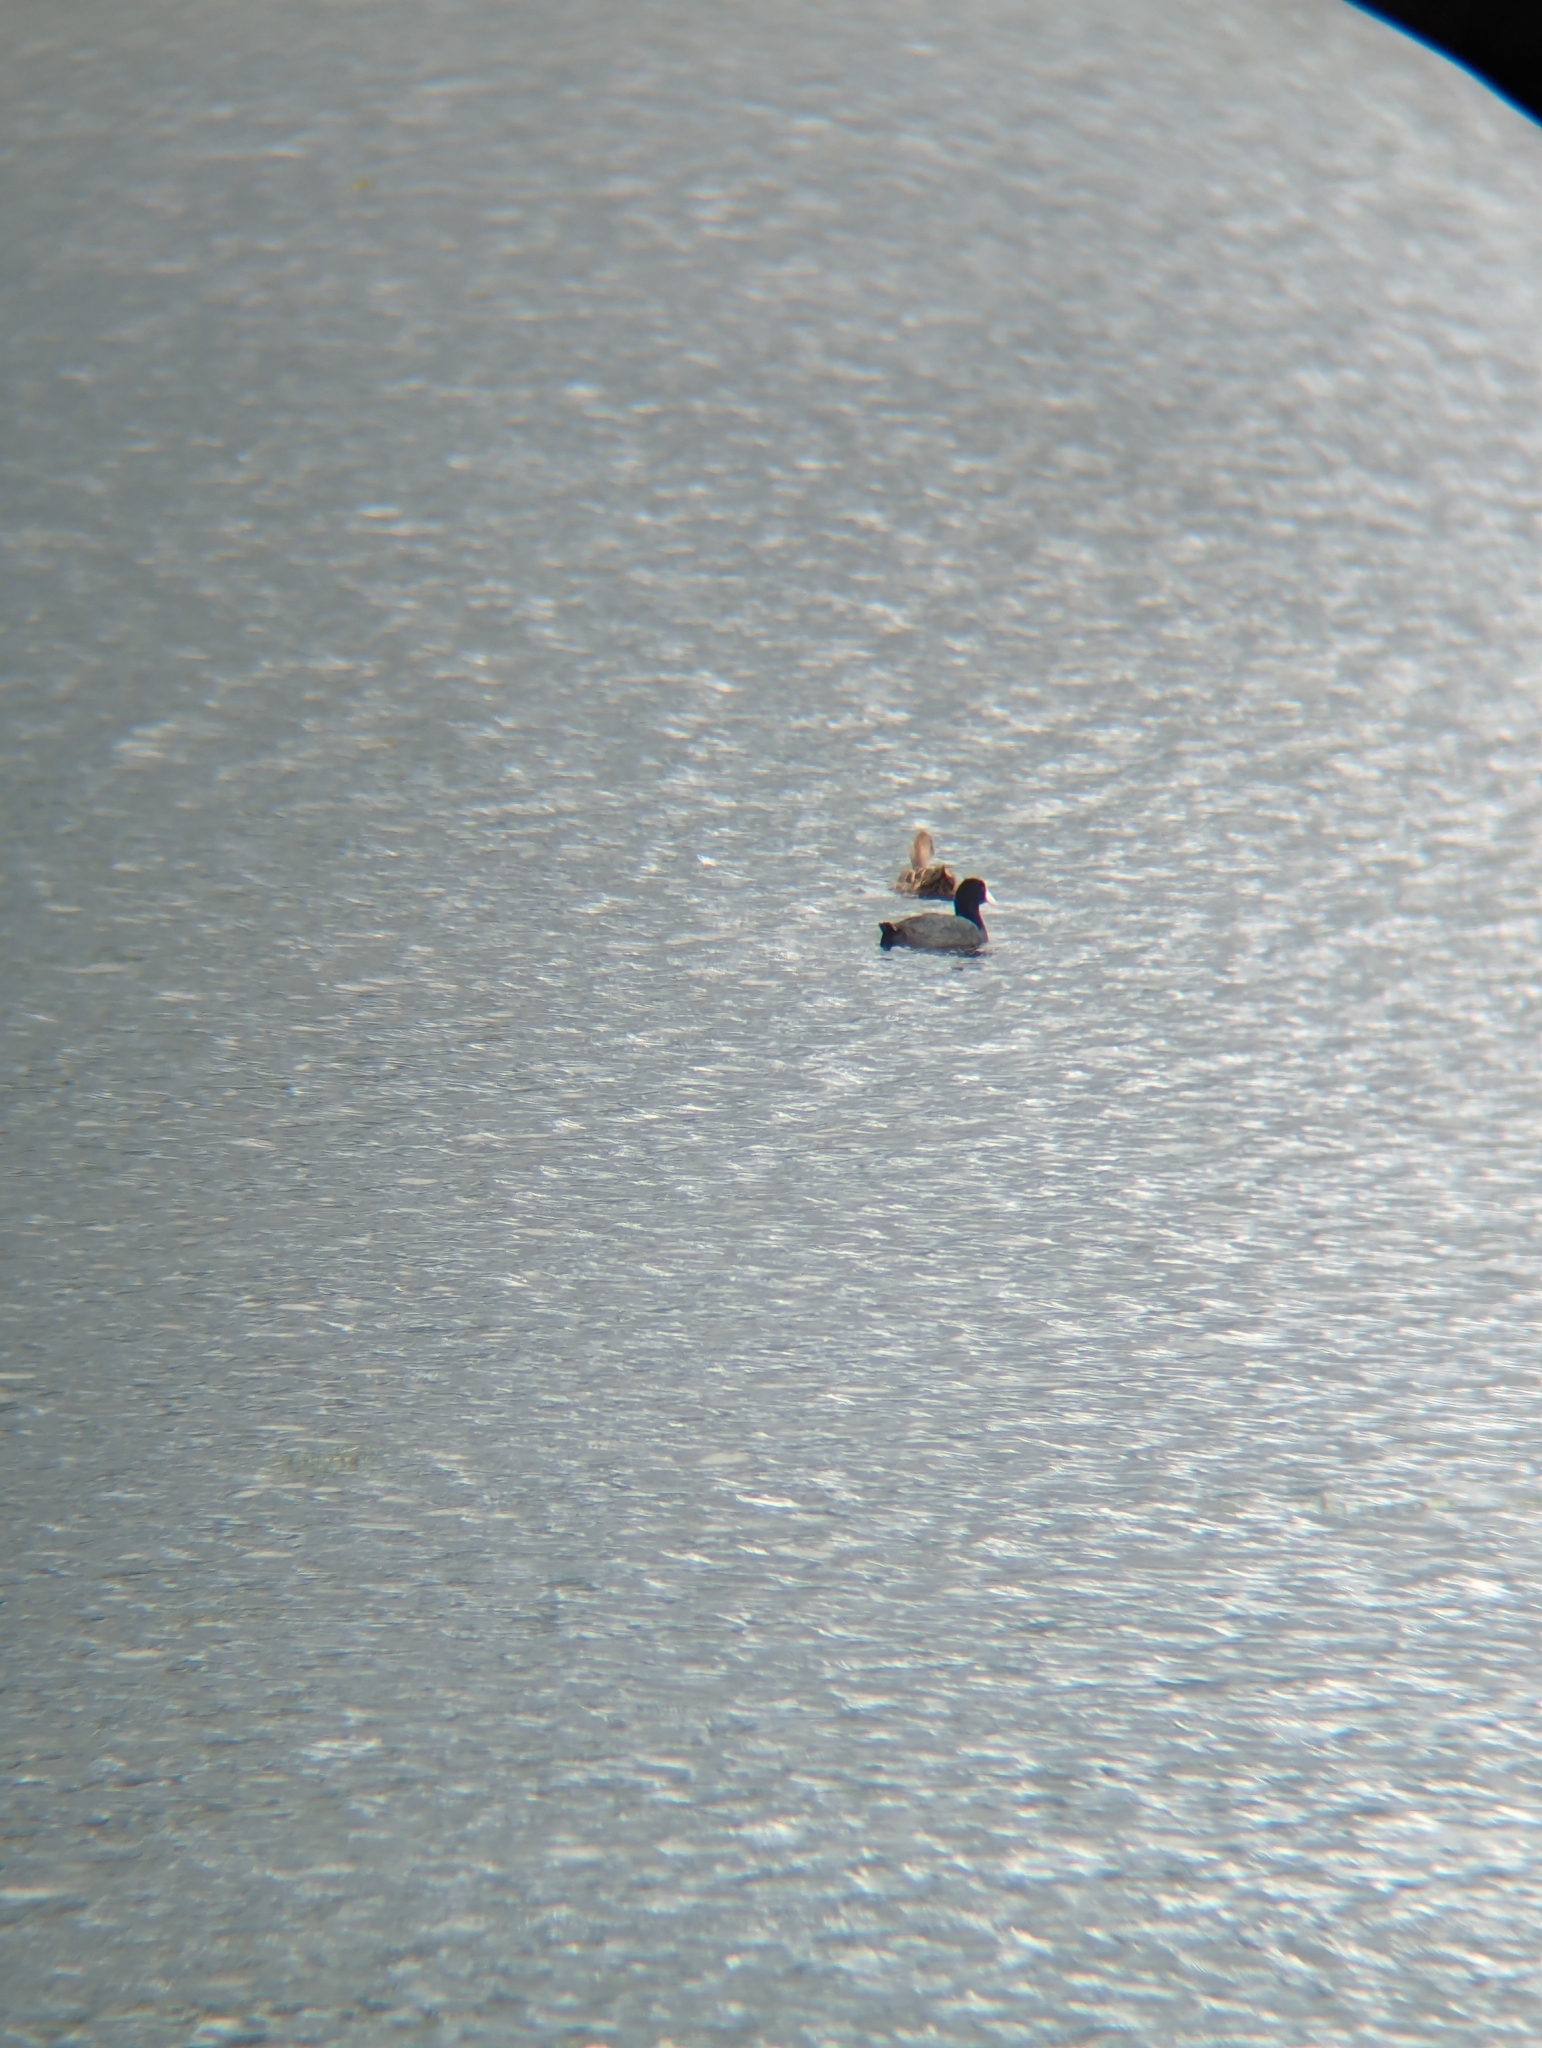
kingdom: Animalia
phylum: Chordata
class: Aves
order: Anseriformes
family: Anatidae
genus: Anas
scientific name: Anas georgica
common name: Yellow-billed pintail
